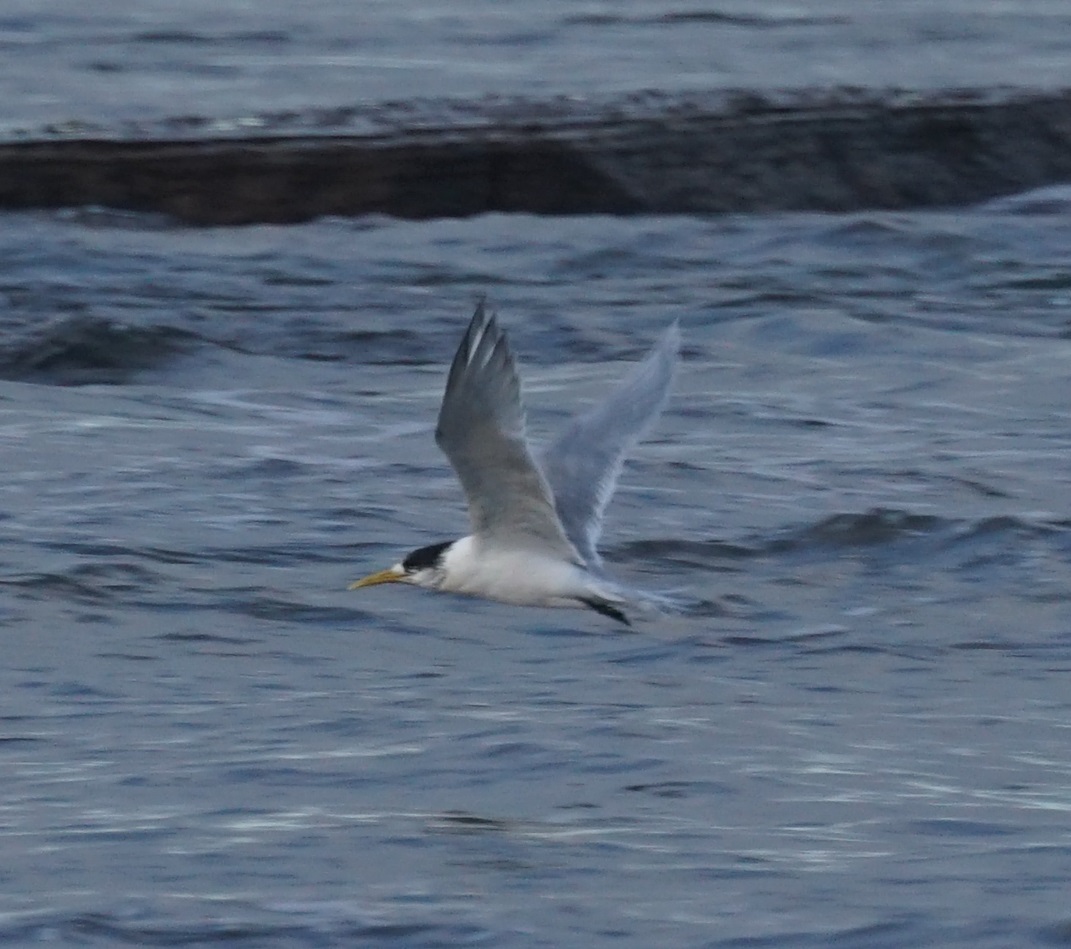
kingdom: Animalia
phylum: Chordata
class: Aves
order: Charadriiformes
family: Laridae
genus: Thalasseus
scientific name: Thalasseus bergii
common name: Greater crested tern
